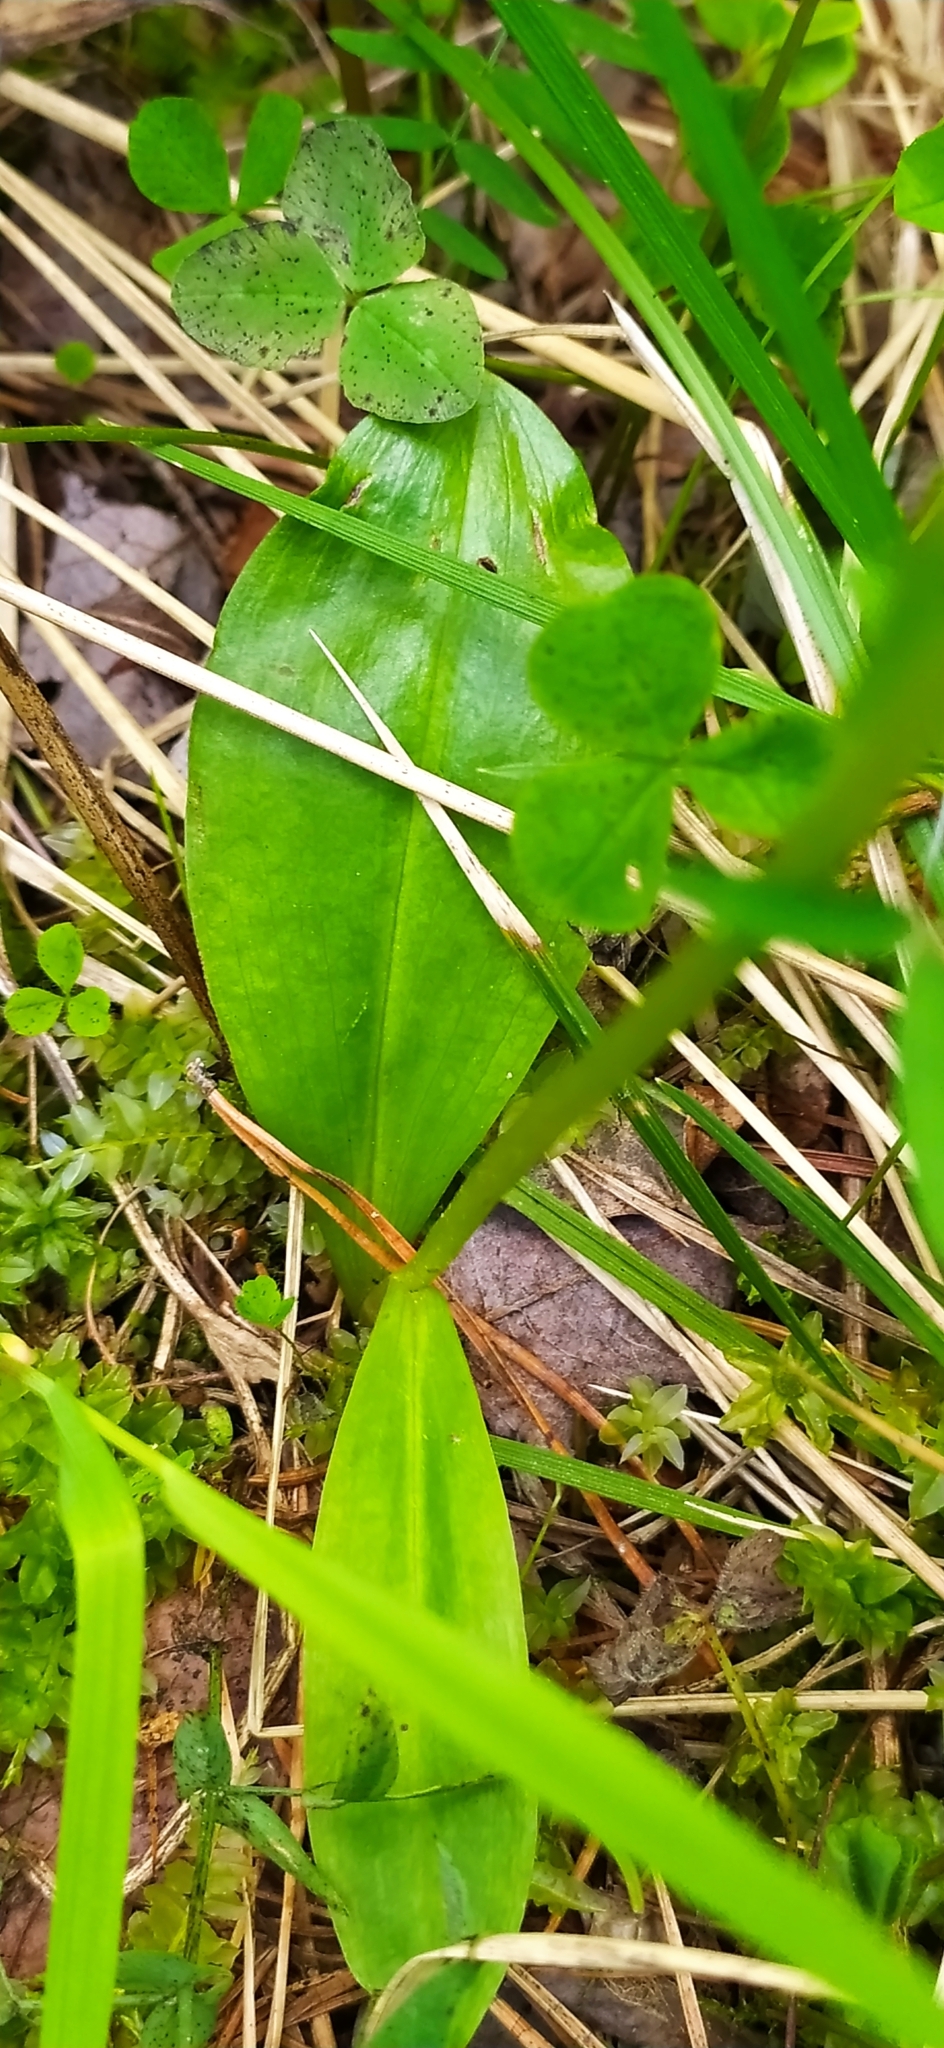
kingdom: Plantae
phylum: Tracheophyta
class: Liliopsida
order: Asparagales
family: Orchidaceae
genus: Platanthera
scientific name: Platanthera bifolia
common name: Lesser butterfly-orchid
